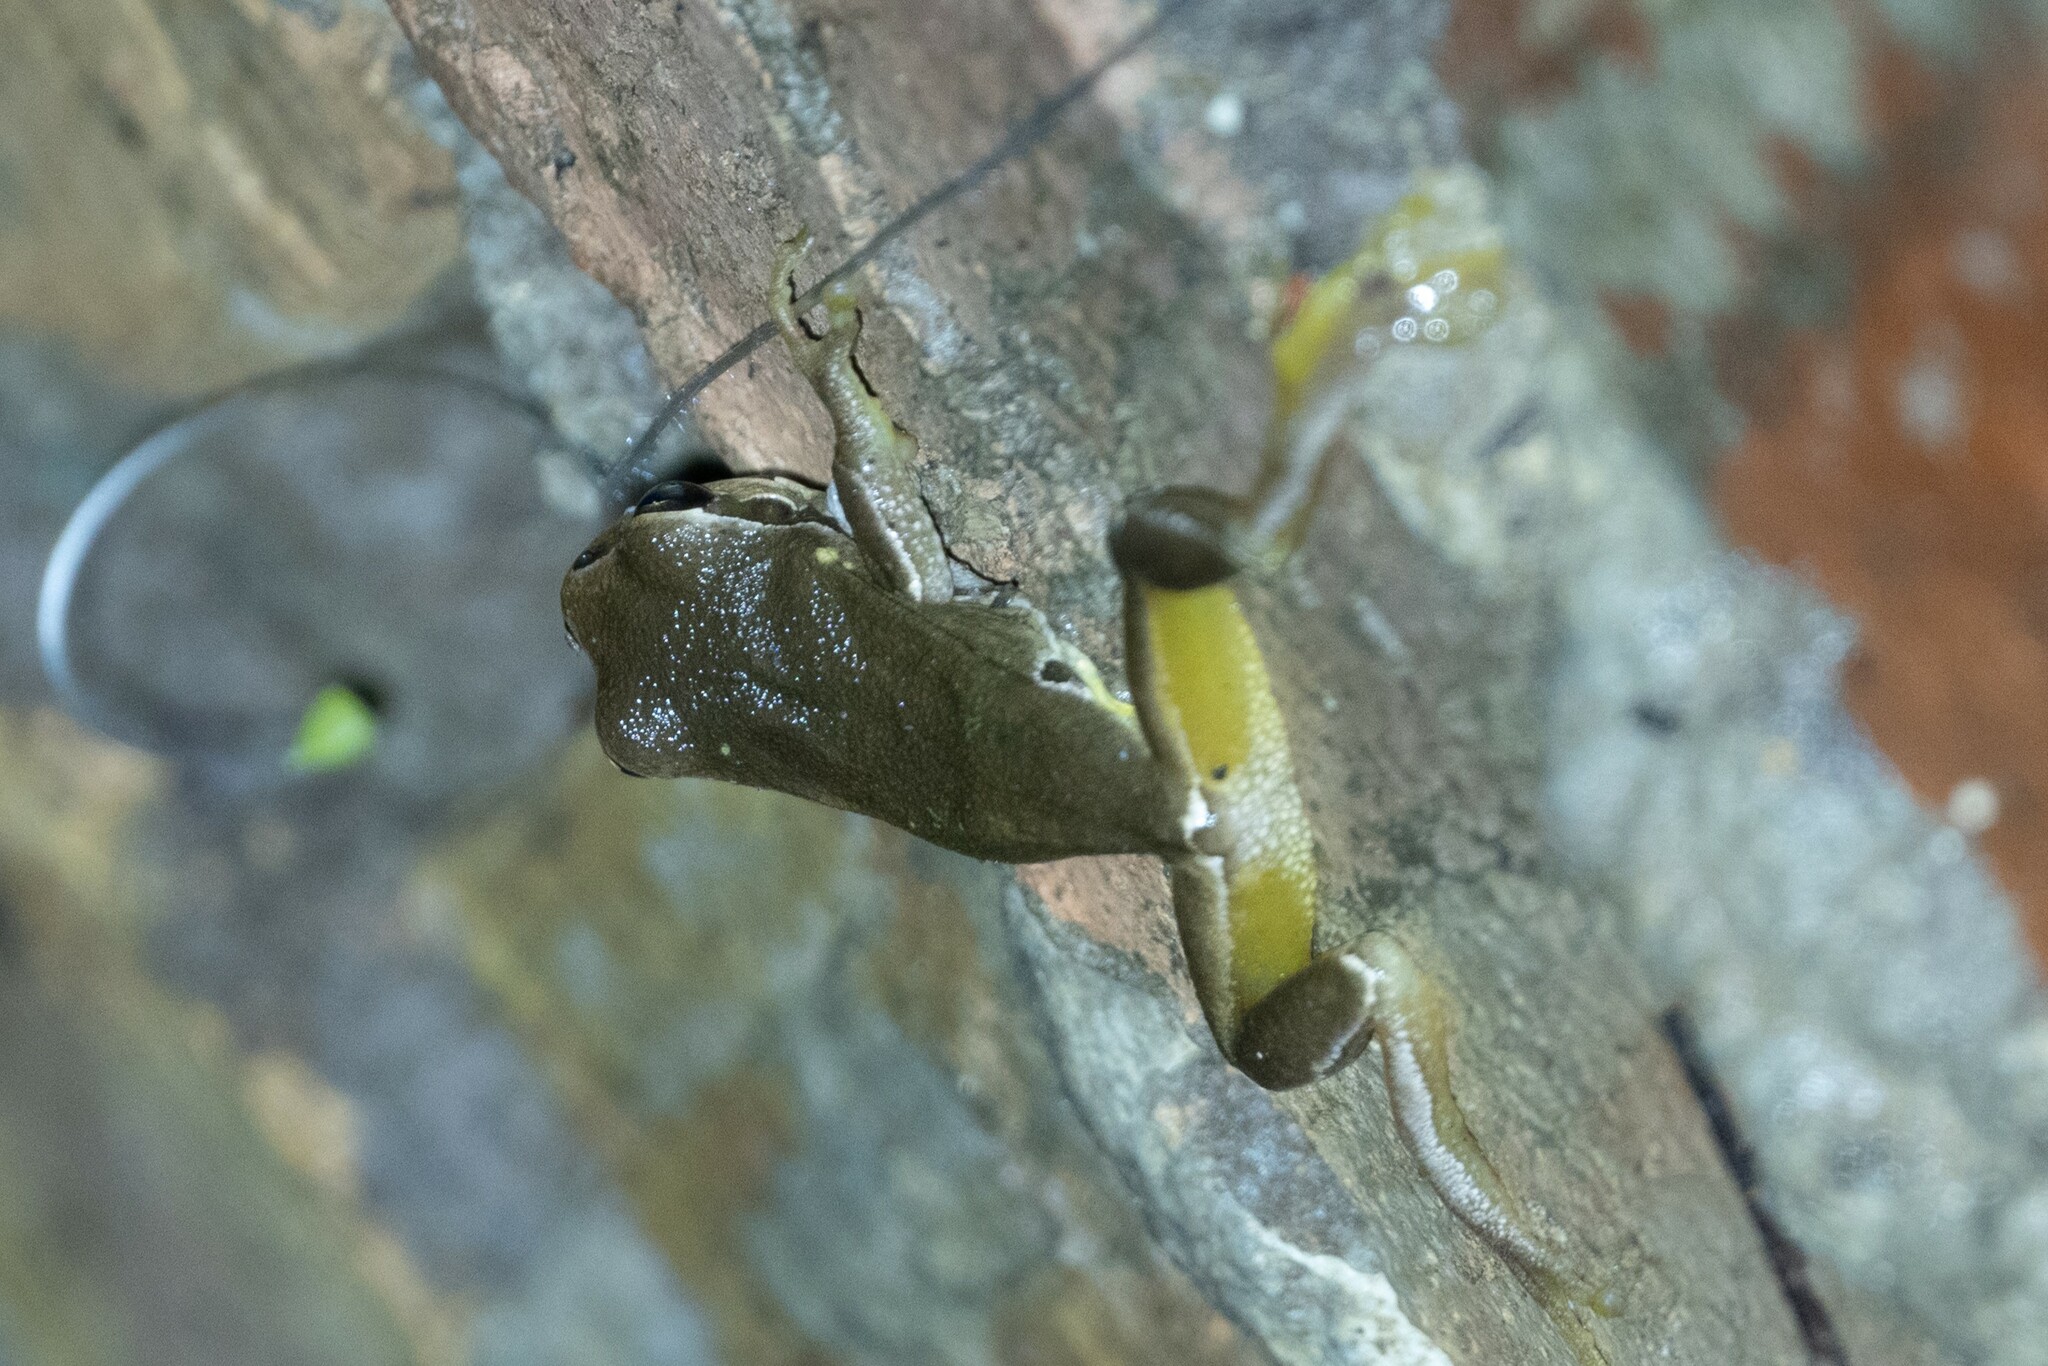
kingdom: Animalia
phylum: Chordata
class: Amphibia
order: Anura
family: Hylidae
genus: Hyla
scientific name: Hyla orientalis
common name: Caucasian treefrog
